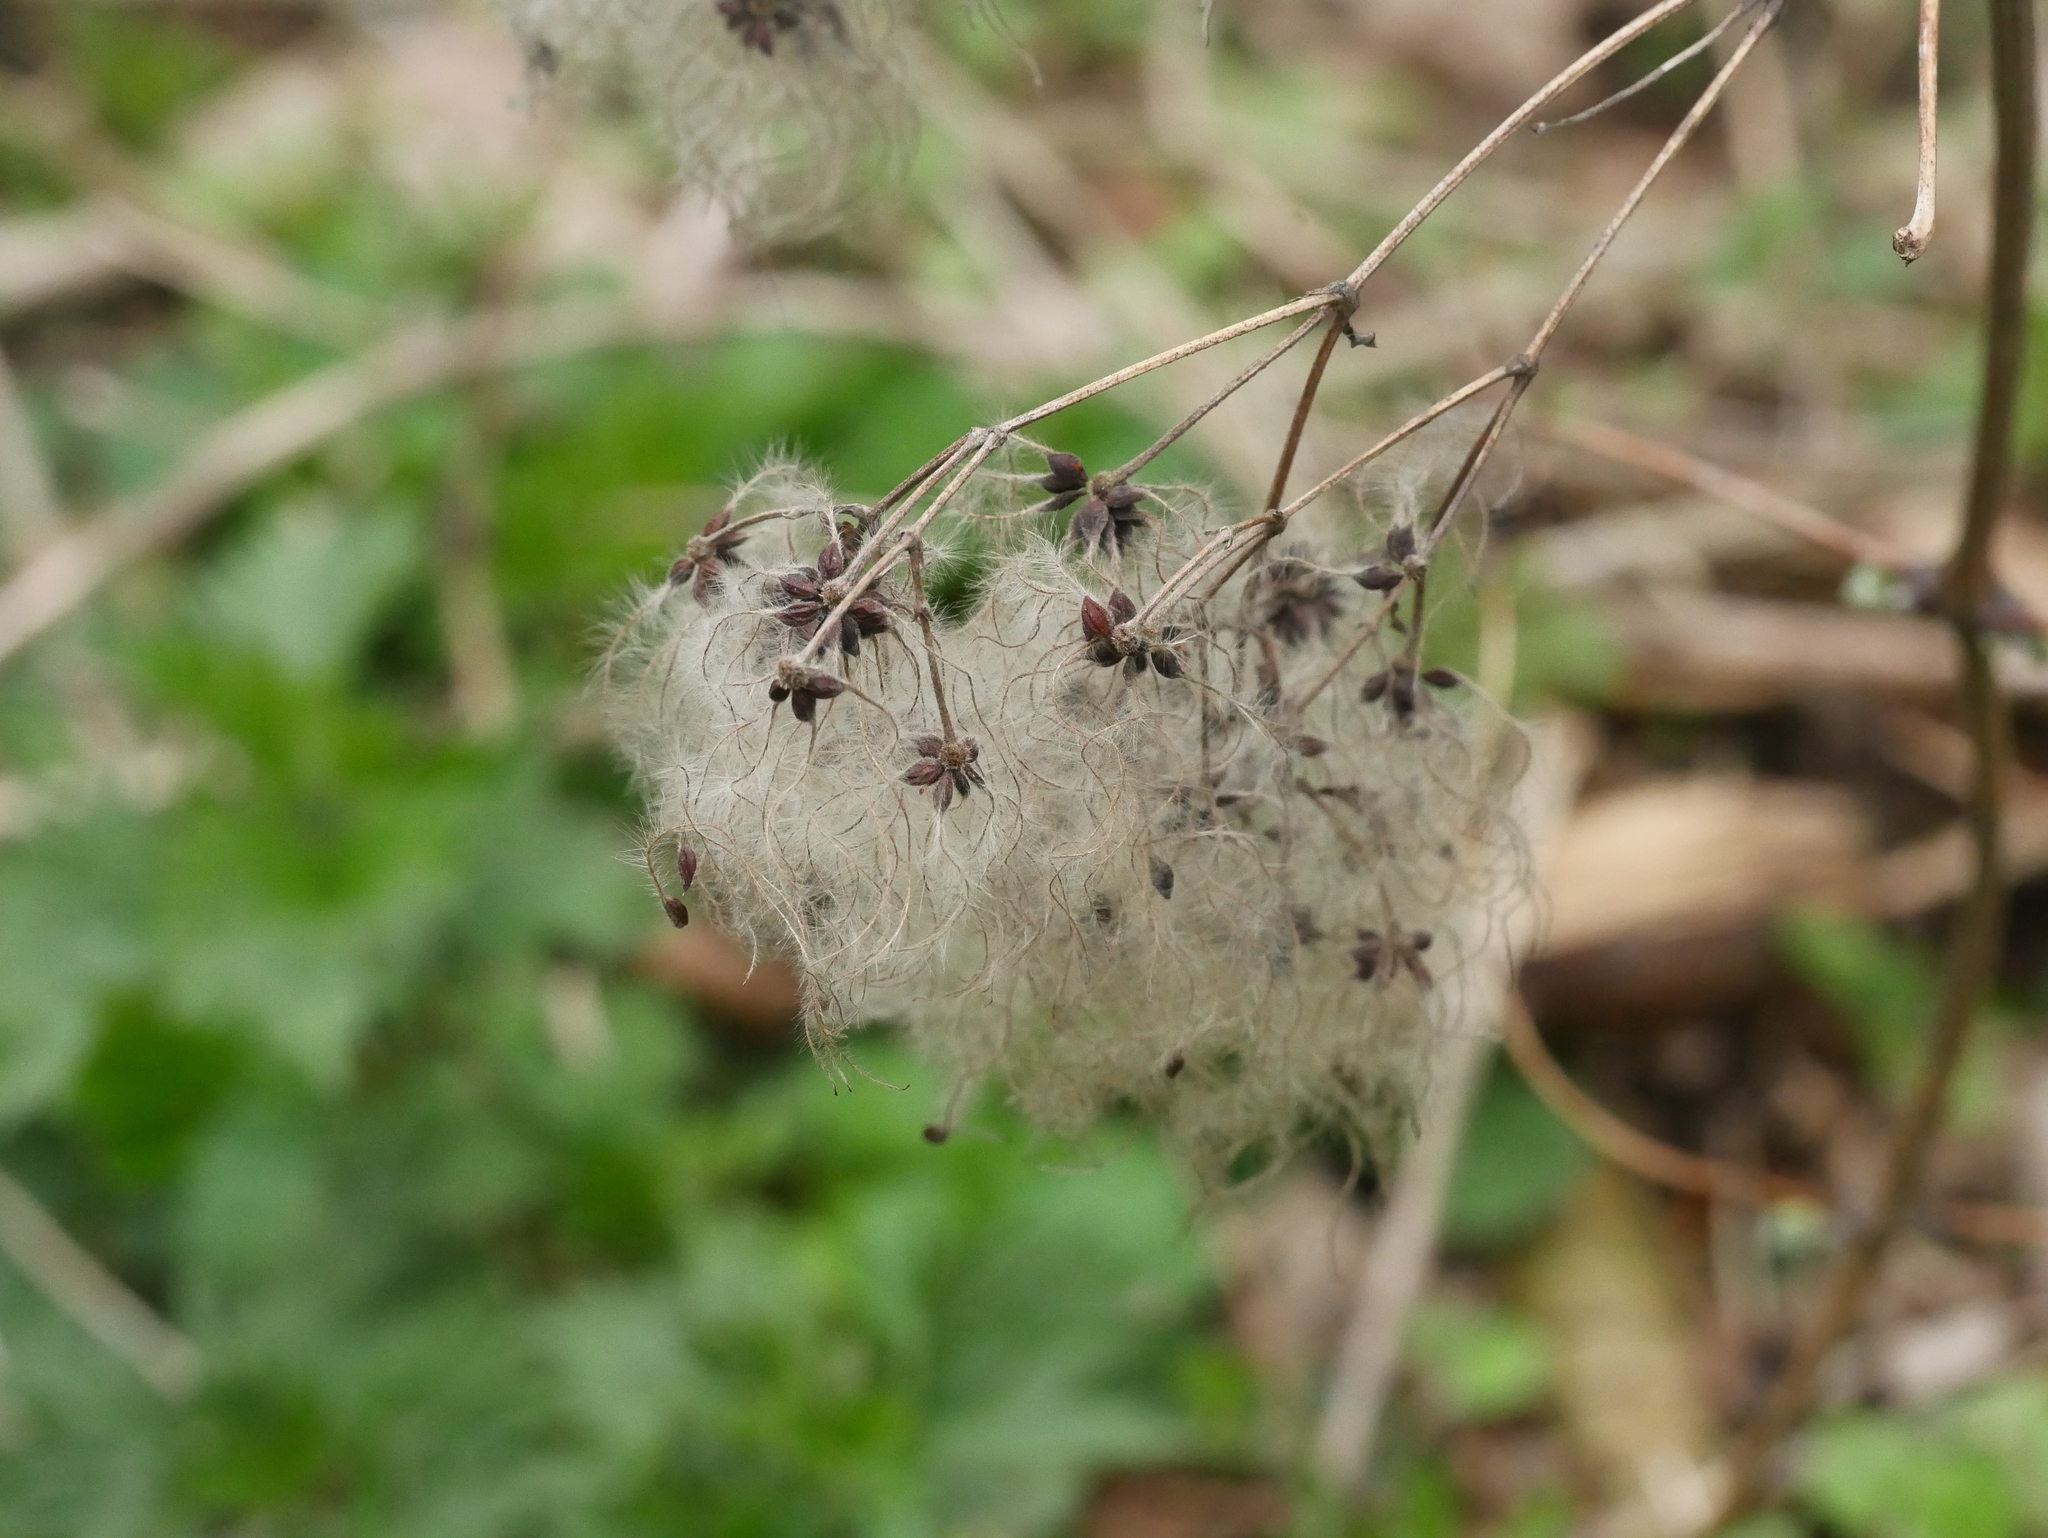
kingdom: Plantae
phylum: Tracheophyta
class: Magnoliopsida
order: Ranunculales
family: Ranunculaceae
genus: Clematis
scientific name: Clematis vitalba
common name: Evergreen clematis
